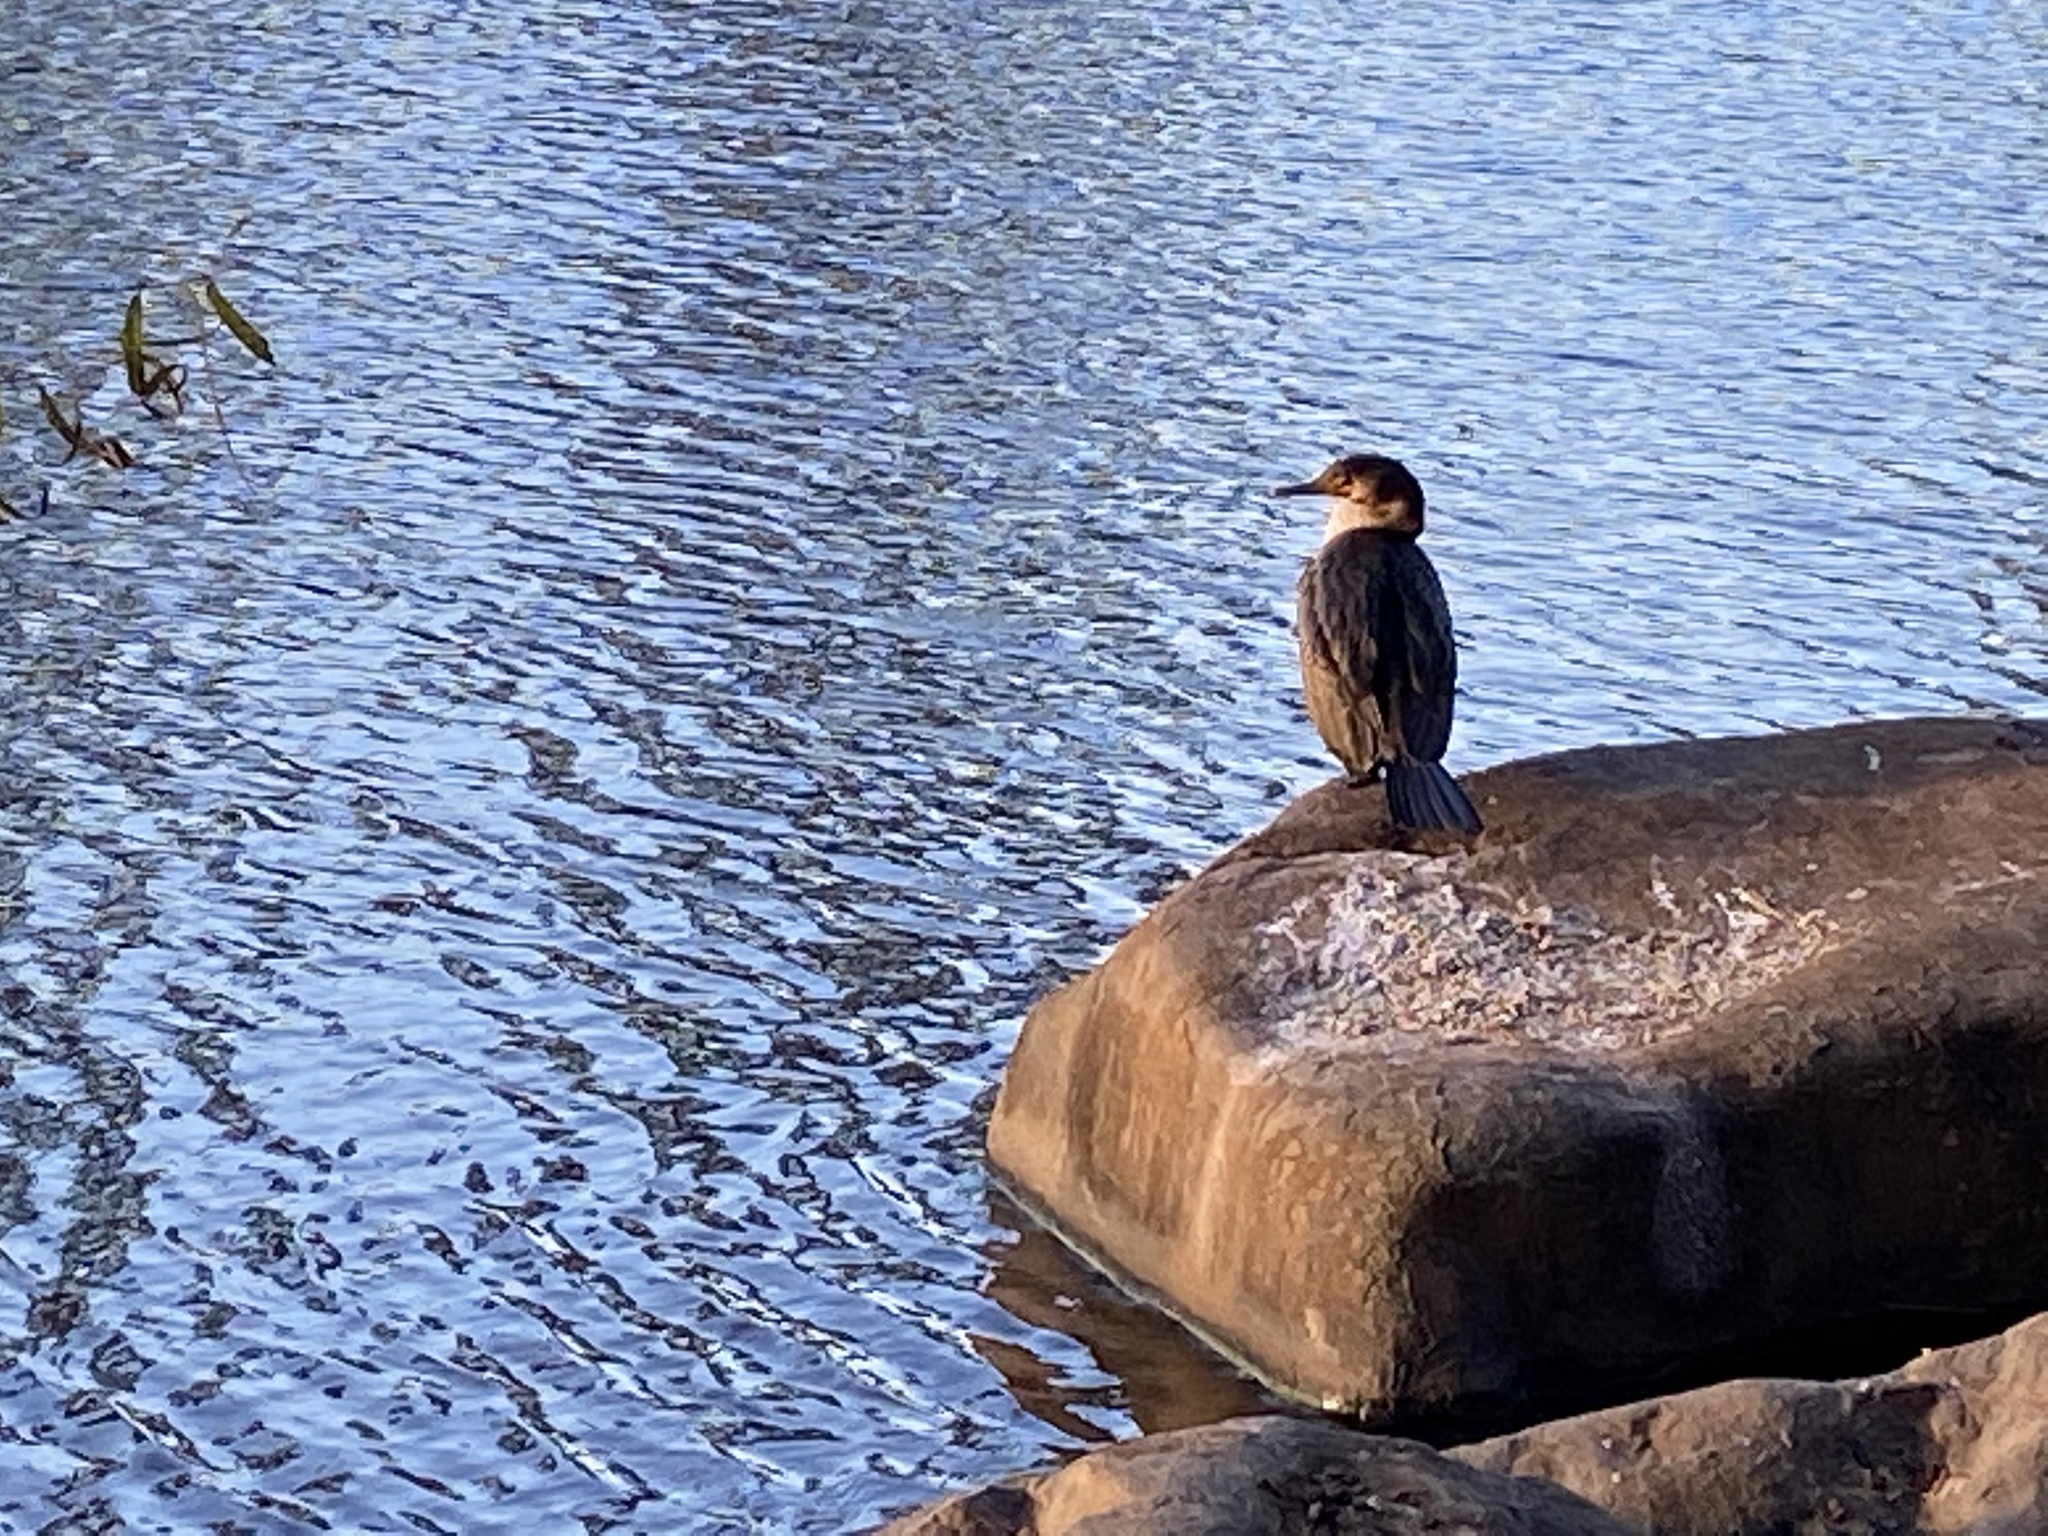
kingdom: Animalia
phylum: Chordata
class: Aves
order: Suliformes
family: Phalacrocoracidae
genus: Phalacrocorax
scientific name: Phalacrocorax auritus
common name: Double-crested cormorant
